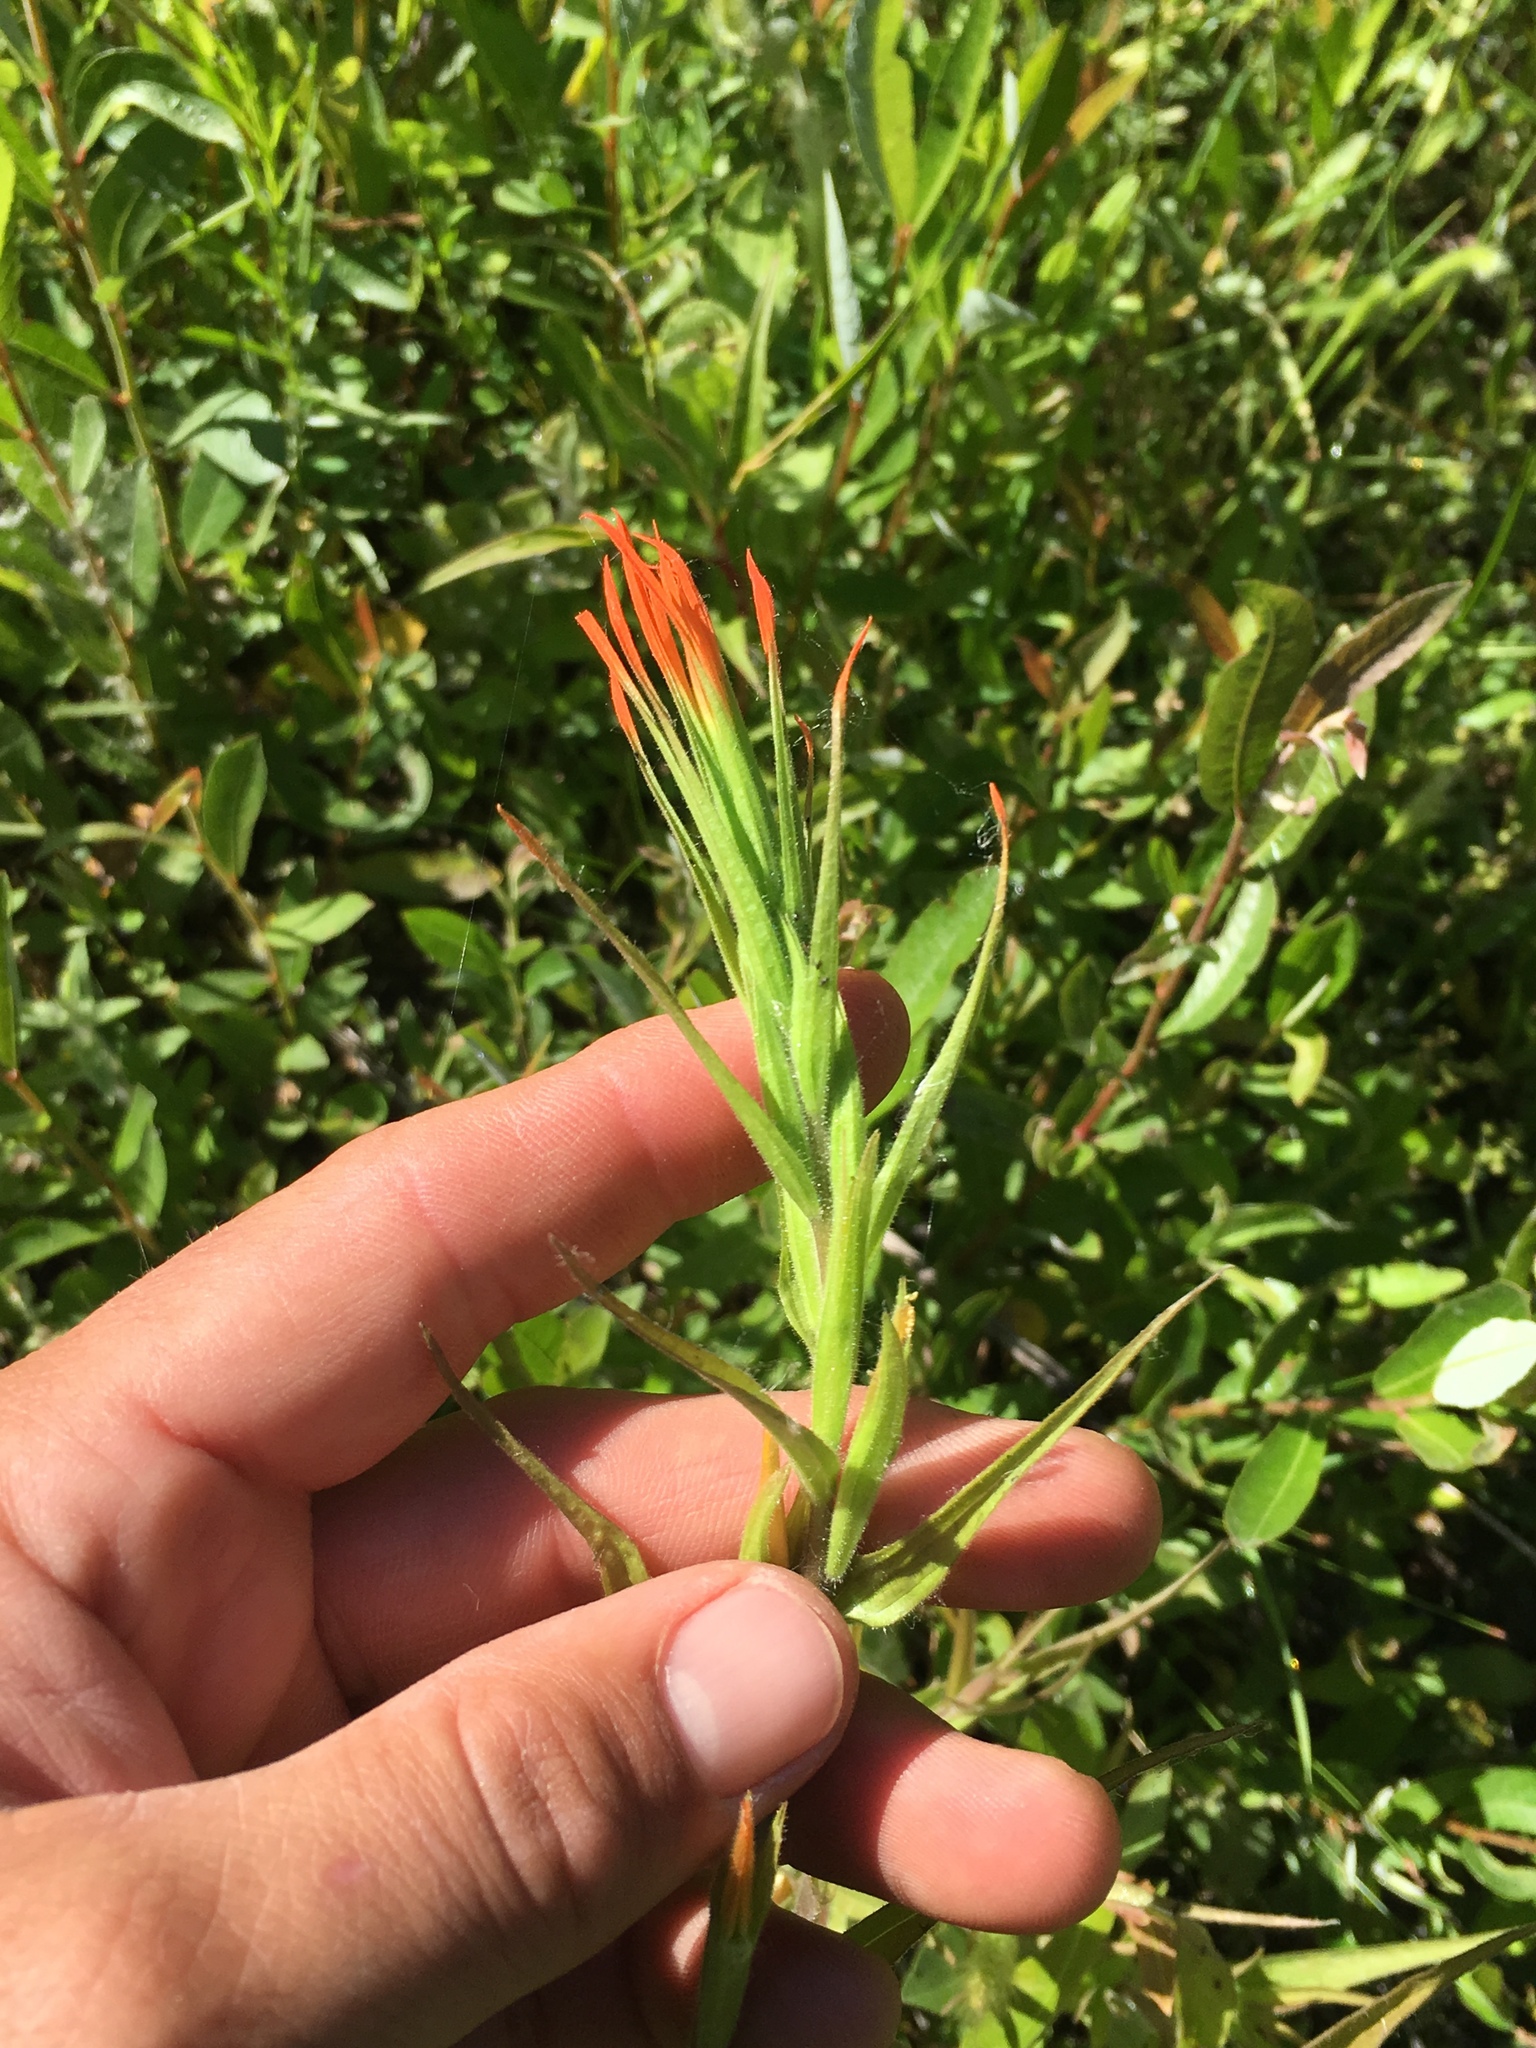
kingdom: Plantae
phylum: Tracheophyta
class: Magnoliopsida
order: Lamiales
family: Orobanchaceae
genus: Castilleja
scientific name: Castilleja minor
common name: Seep paintbrush
